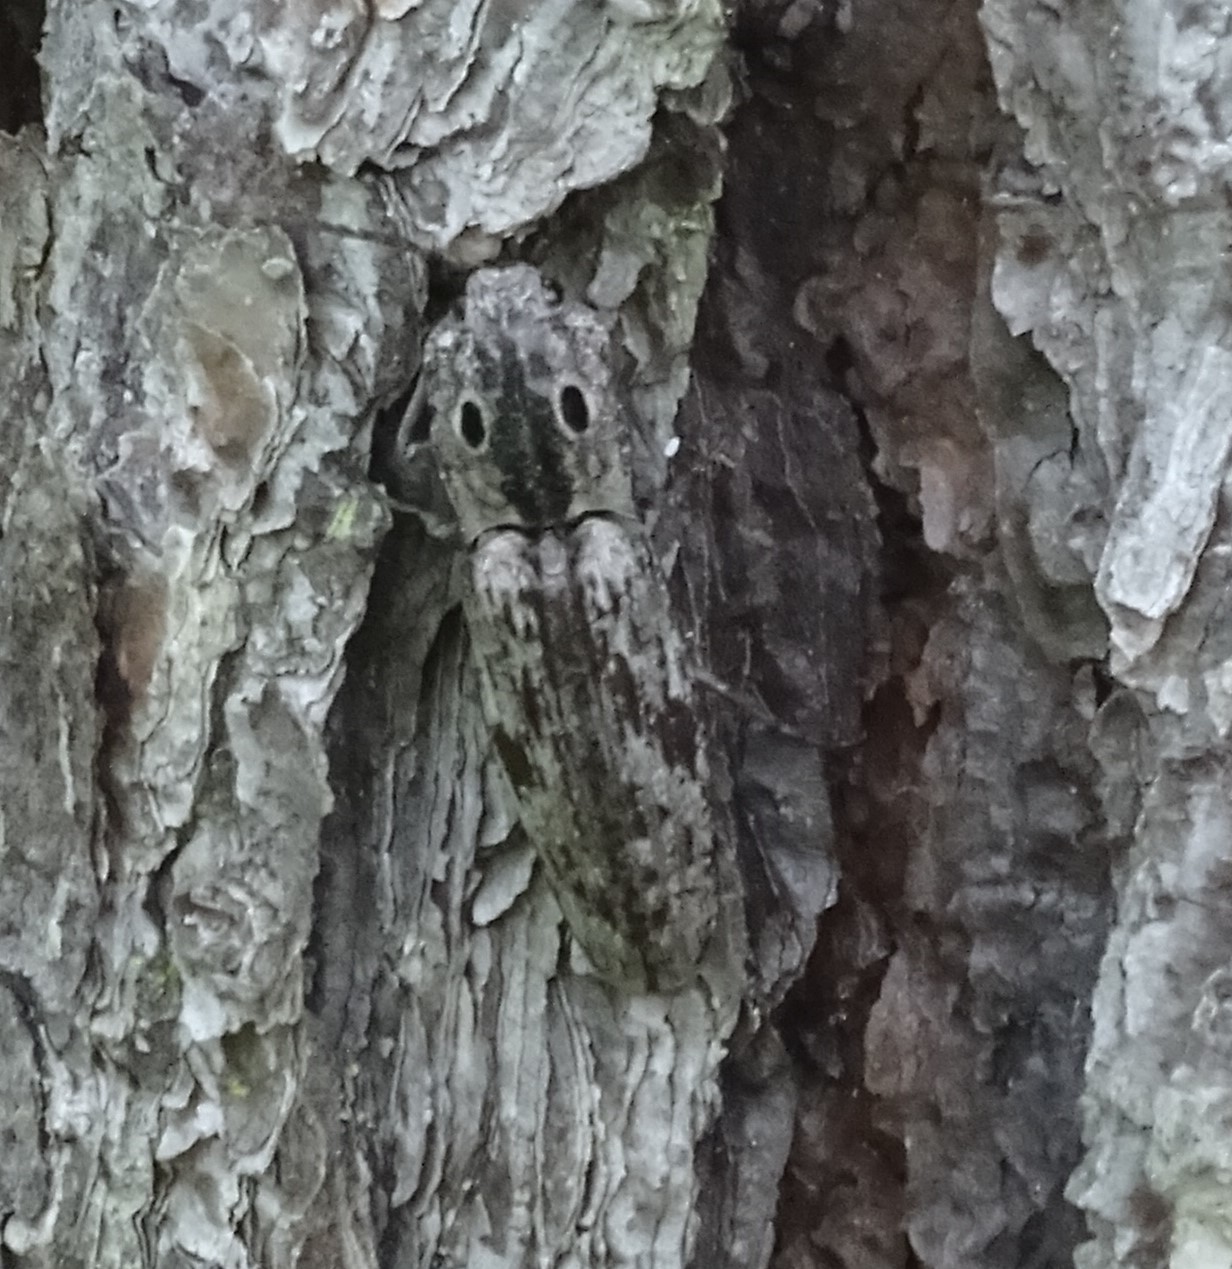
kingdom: Animalia
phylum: Arthropoda
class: Insecta
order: Coleoptera
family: Elateridae
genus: Alaus
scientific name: Alaus myops
